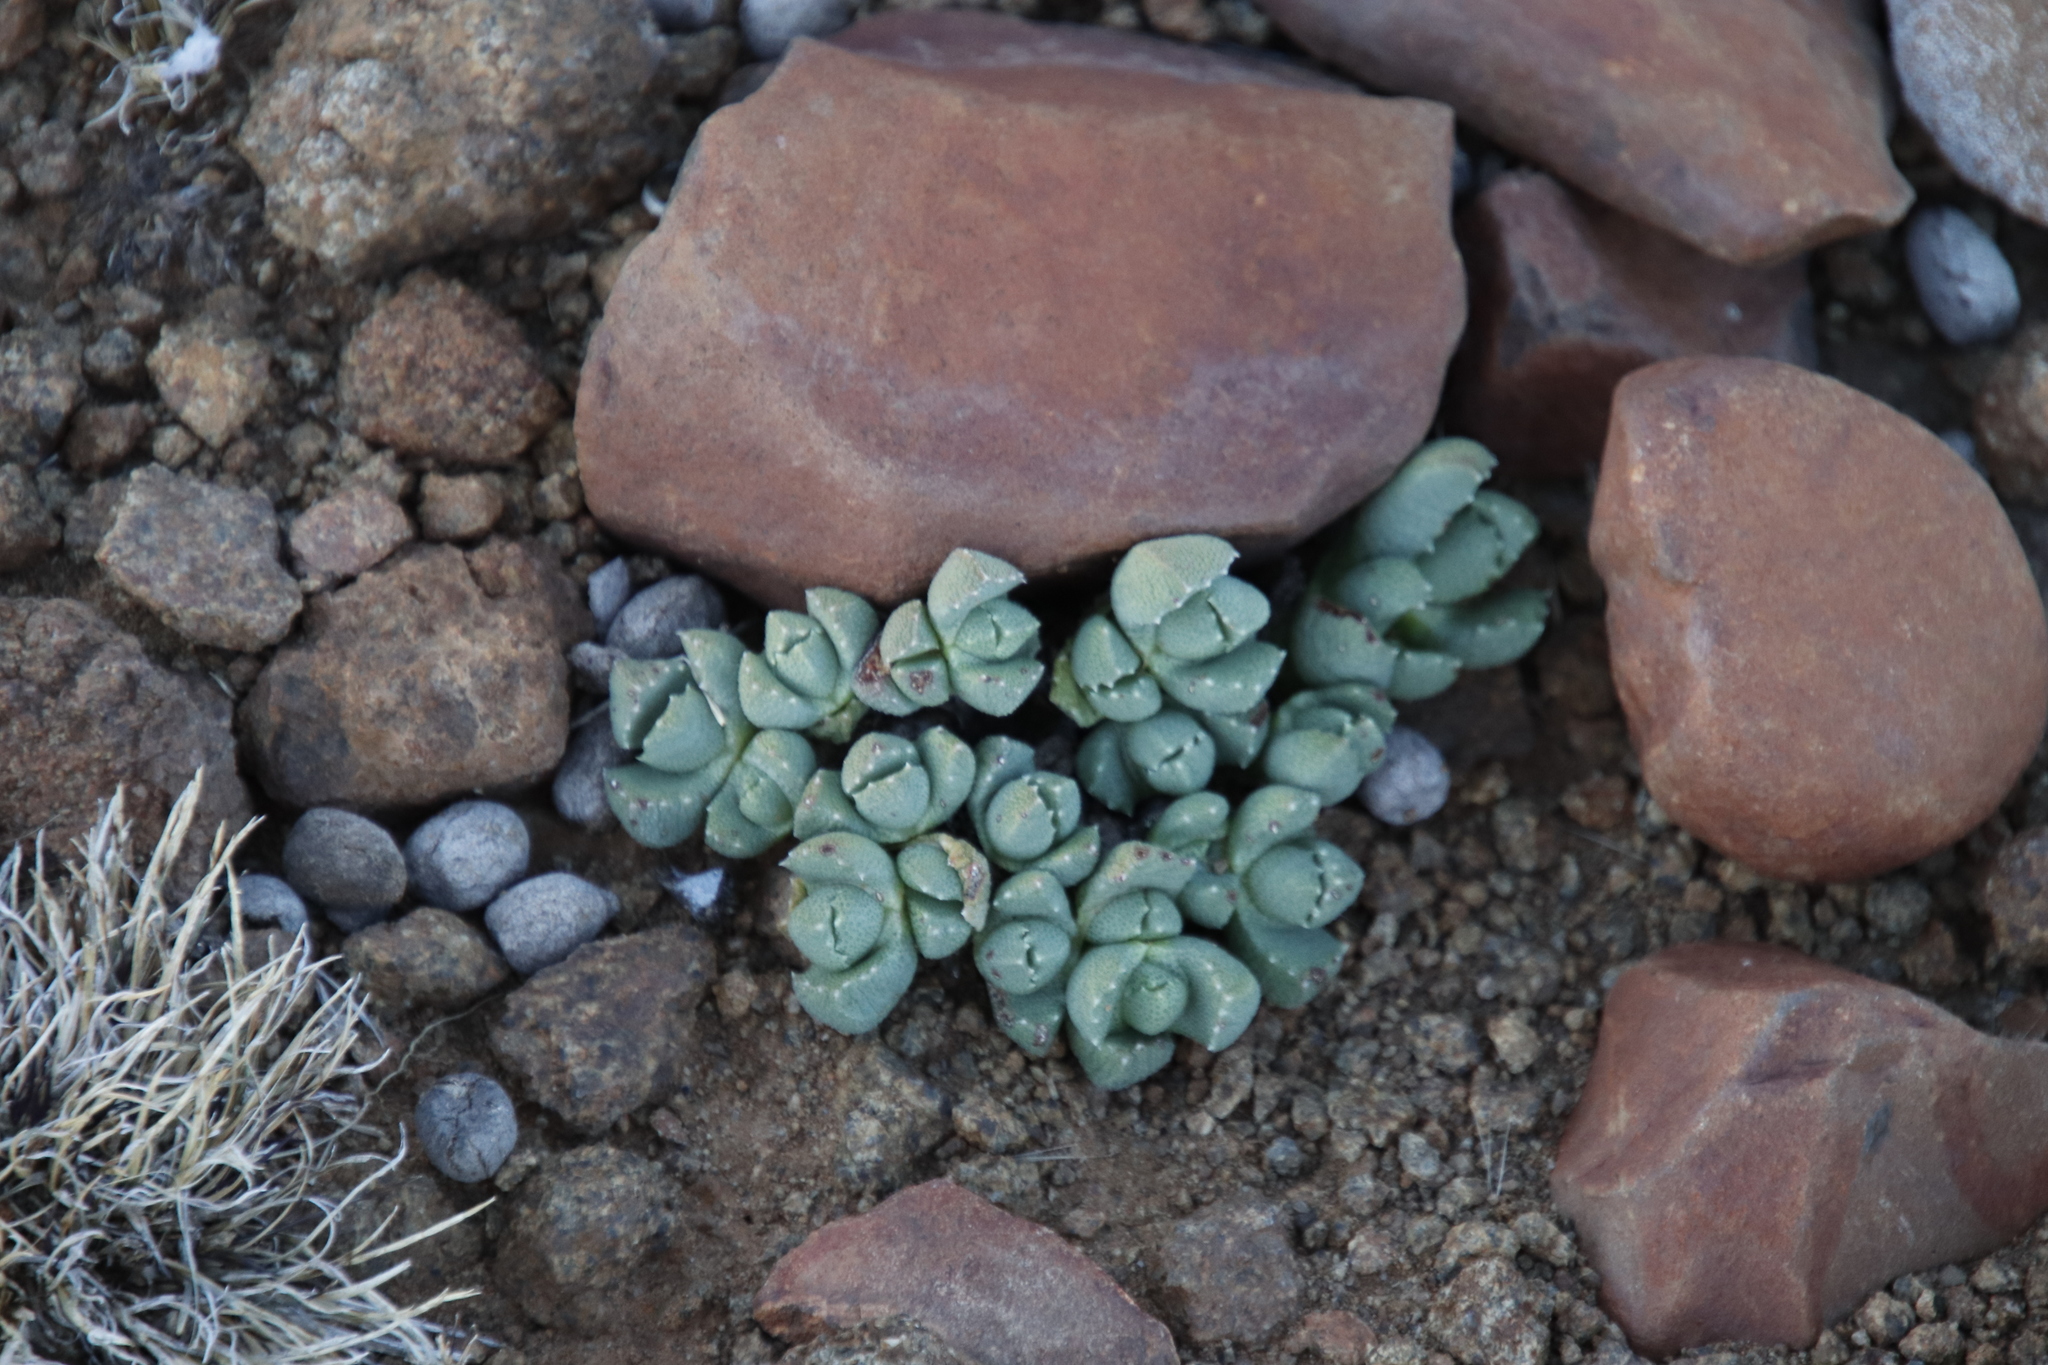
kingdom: Plantae
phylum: Tracheophyta
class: Magnoliopsida
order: Caryophyllales
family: Aizoaceae
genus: Stomatium
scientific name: Stomatium bolusiae
